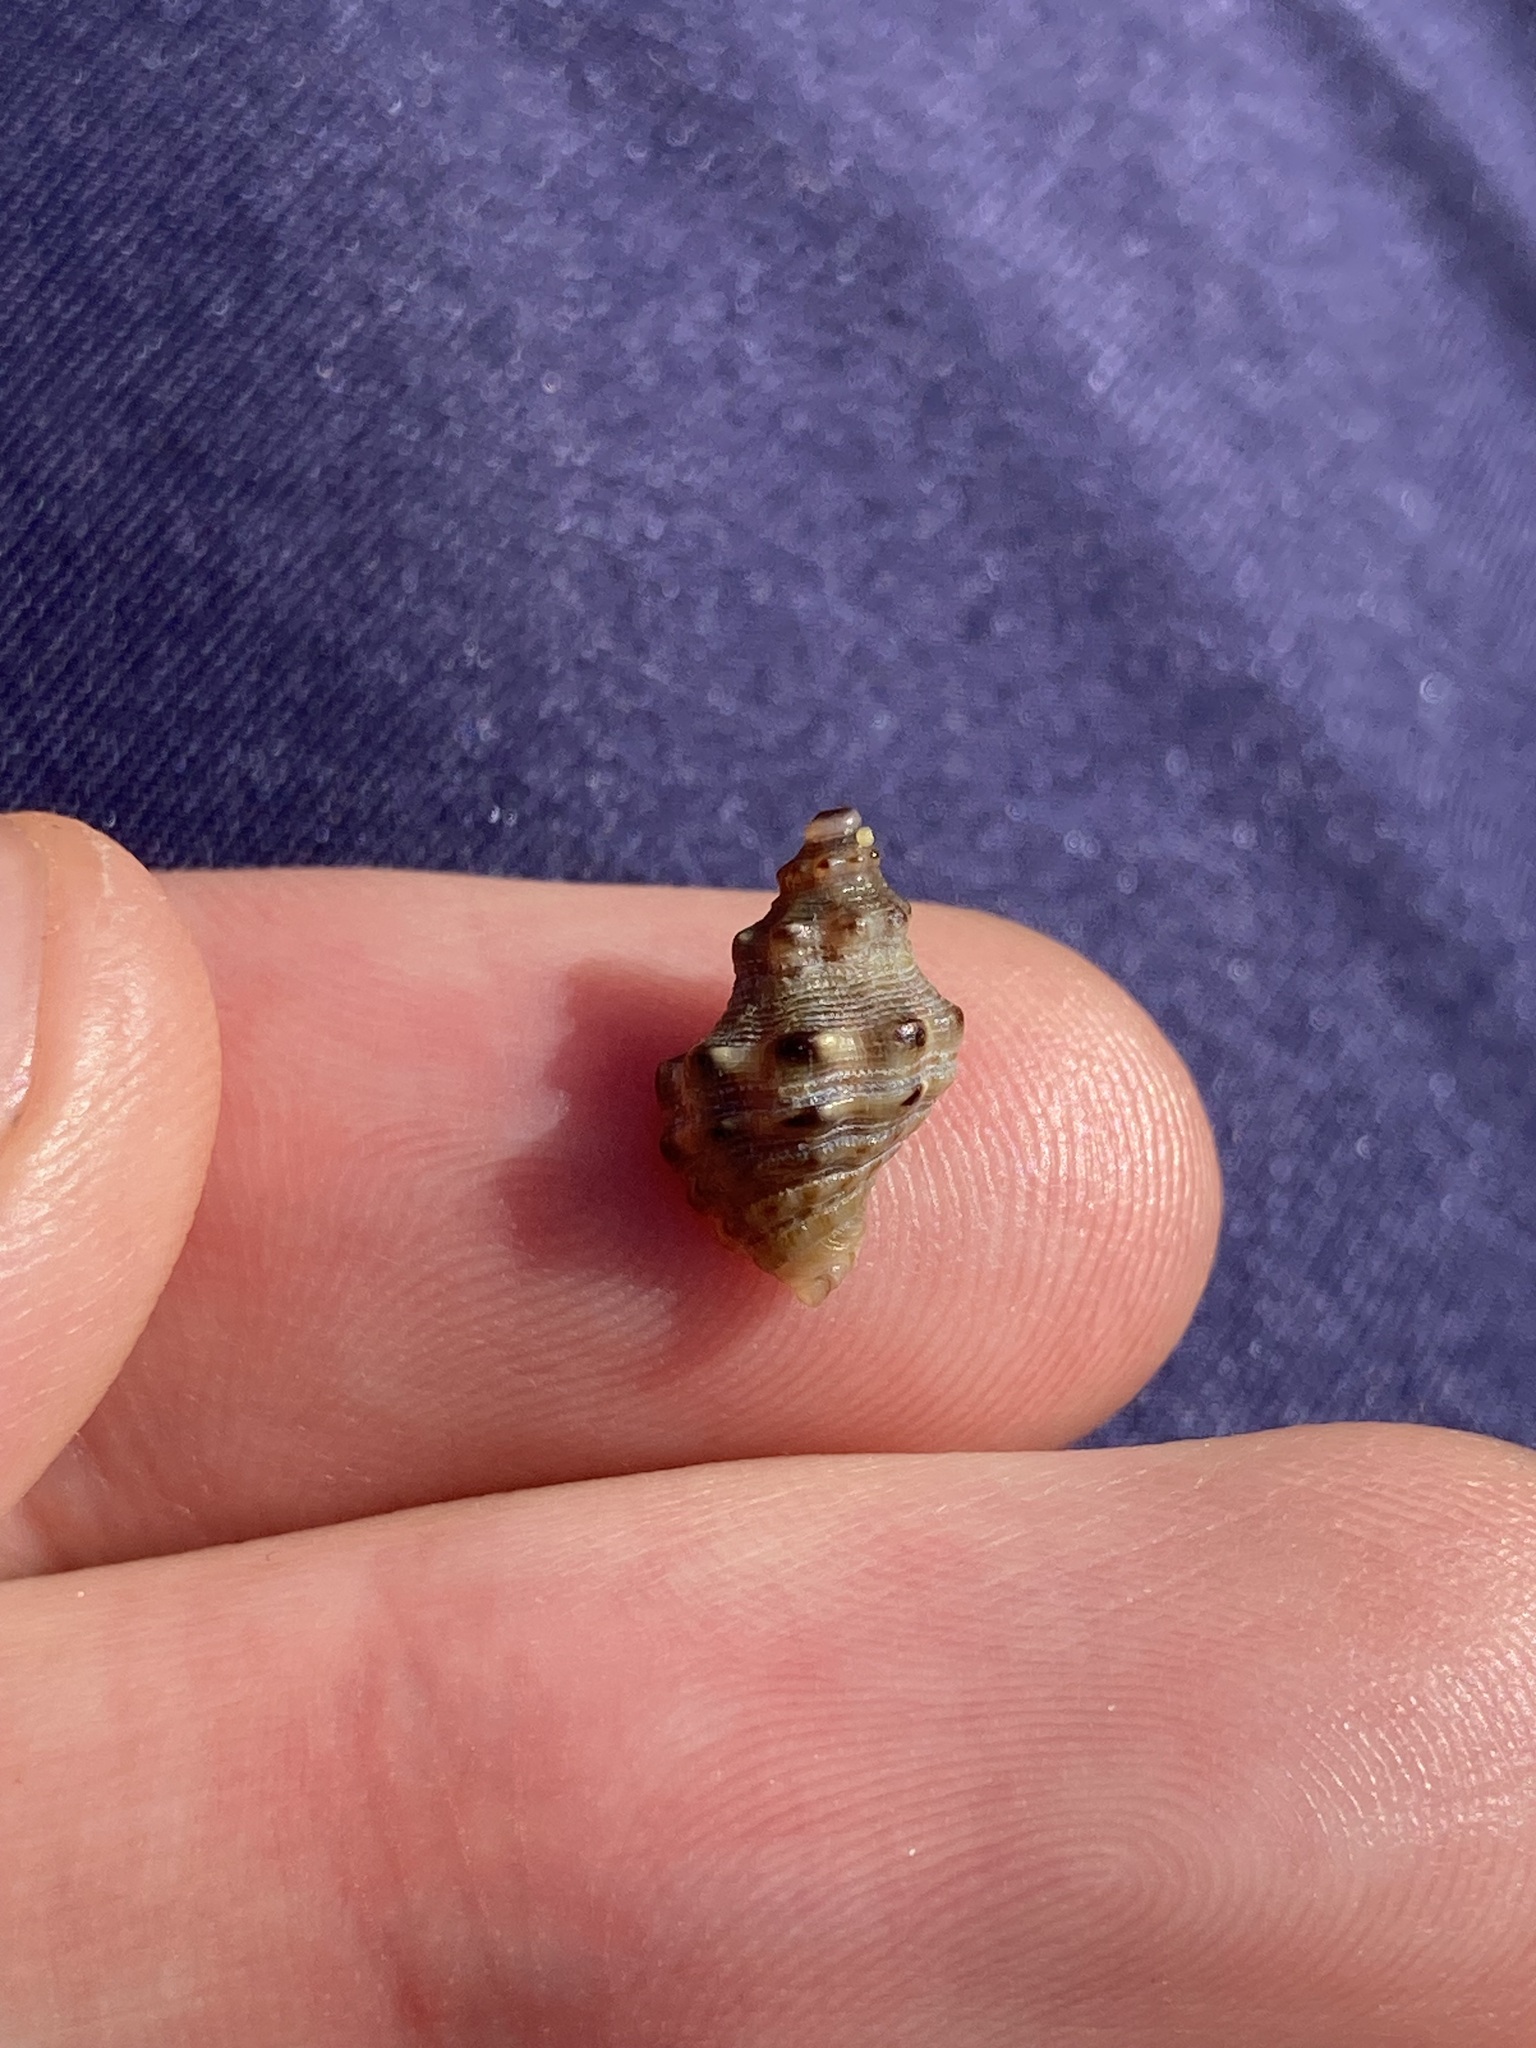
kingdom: Animalia
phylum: Mollusca
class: Gastropoda
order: Neogastropoda
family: Muricidae
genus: Phycothais
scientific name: Phycothais reticulata
